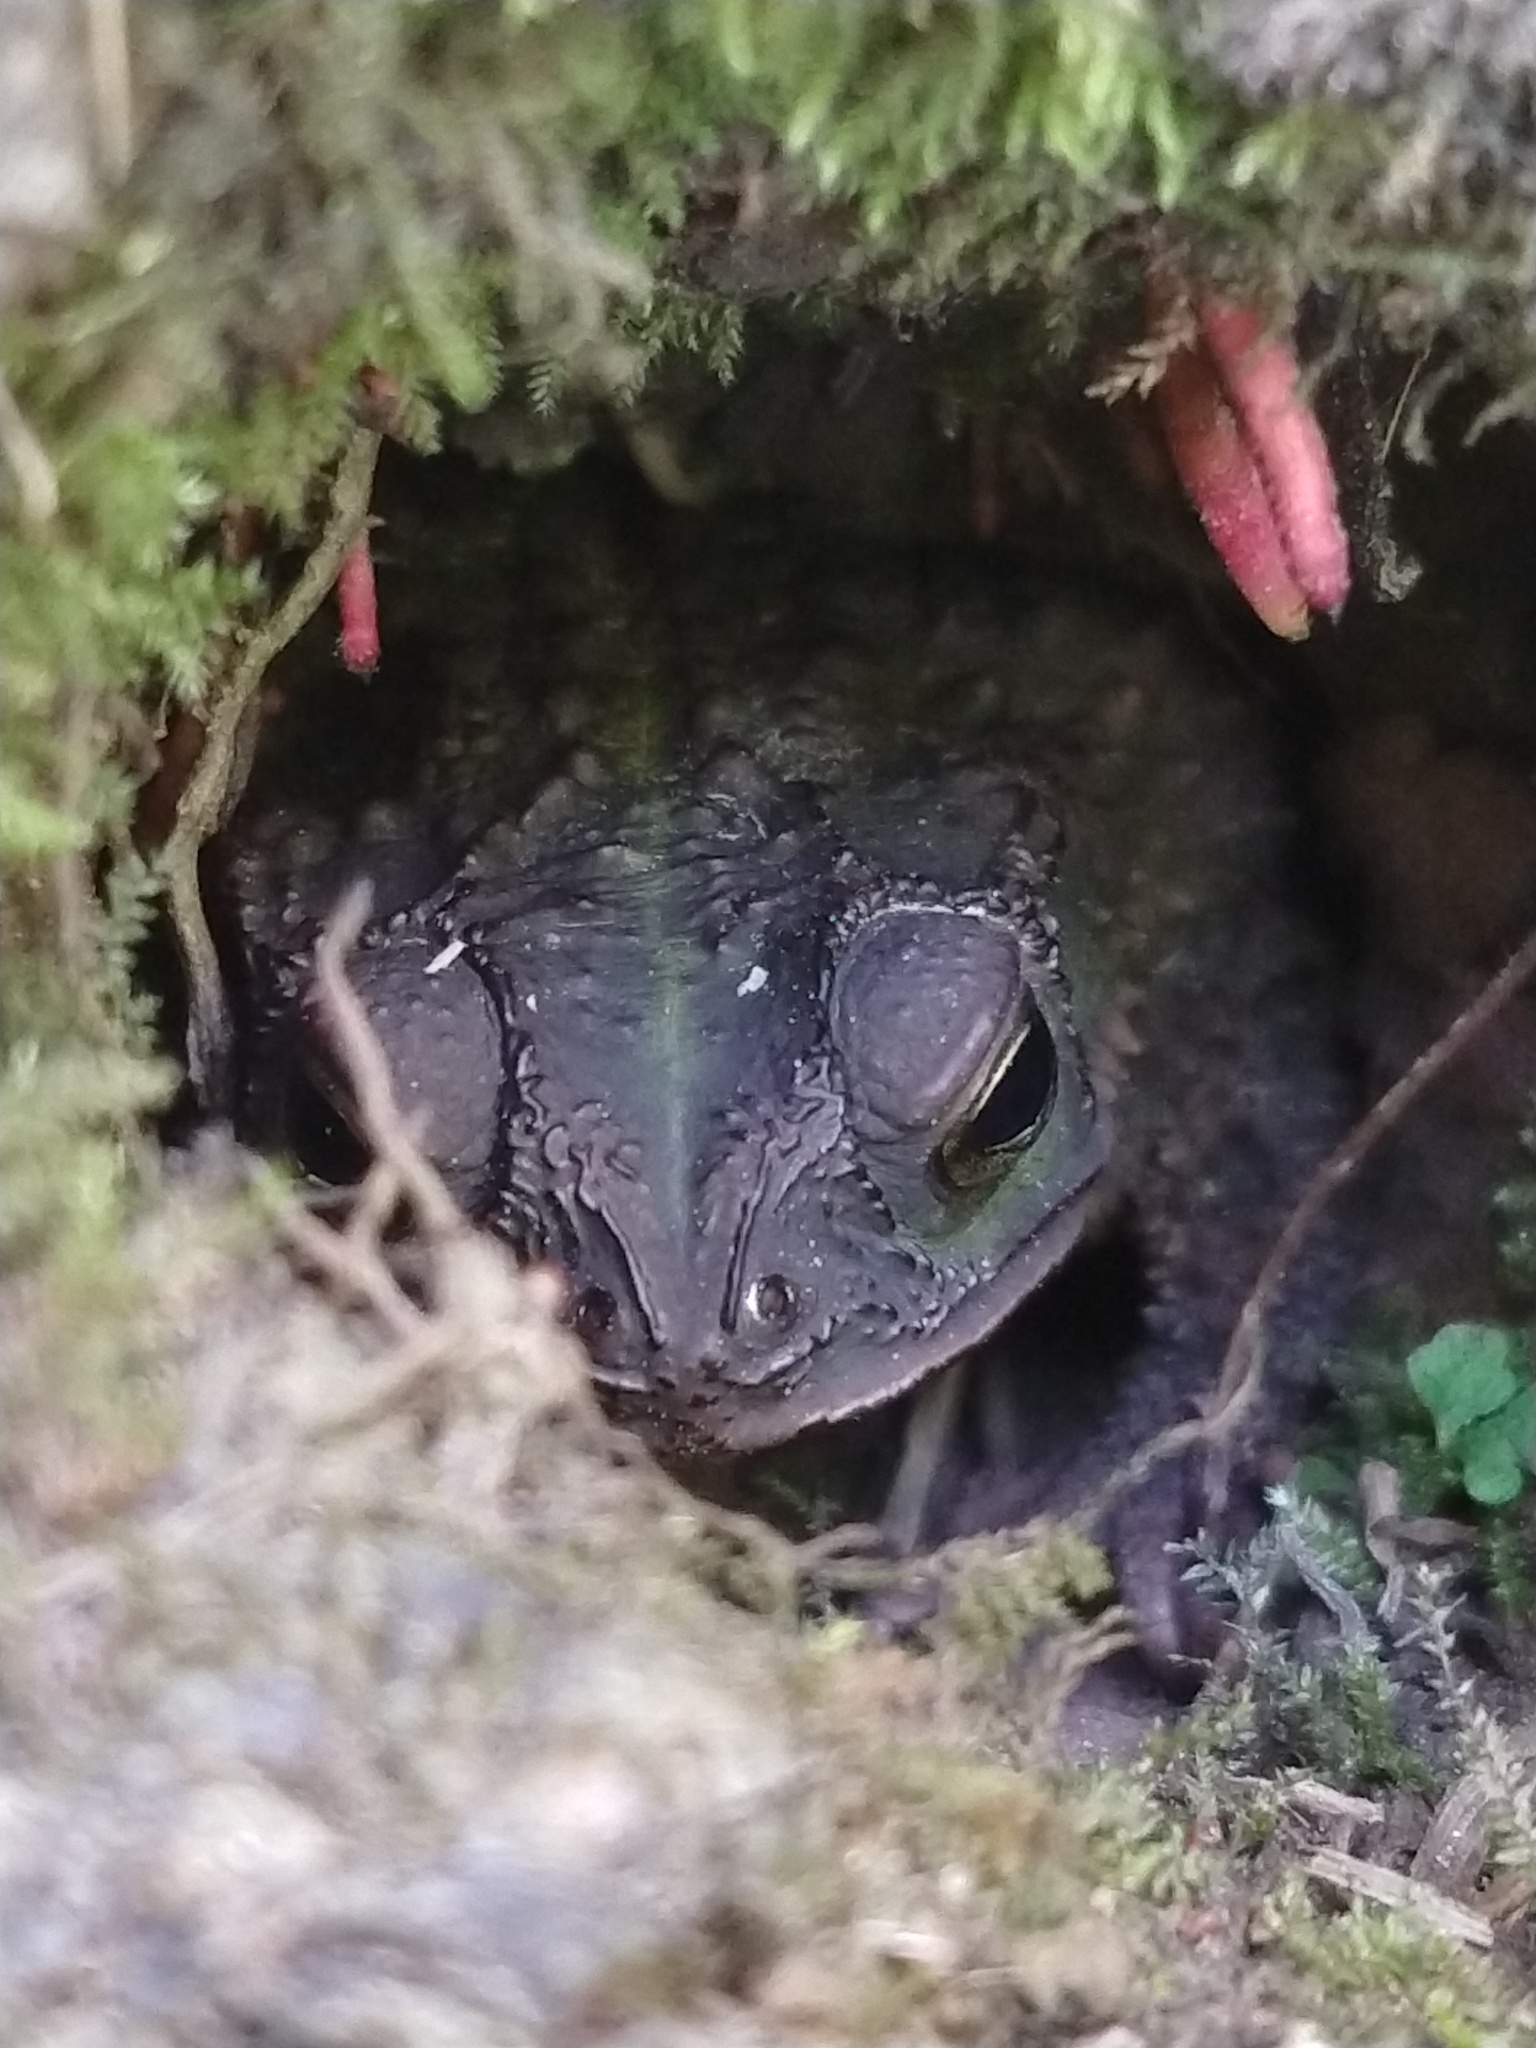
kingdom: Animalia
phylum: Chordata
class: Amphibia
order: Anura
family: Bufonidae
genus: Rhinella
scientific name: Rhinella dorbignyi
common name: D´orbigny’s toad
